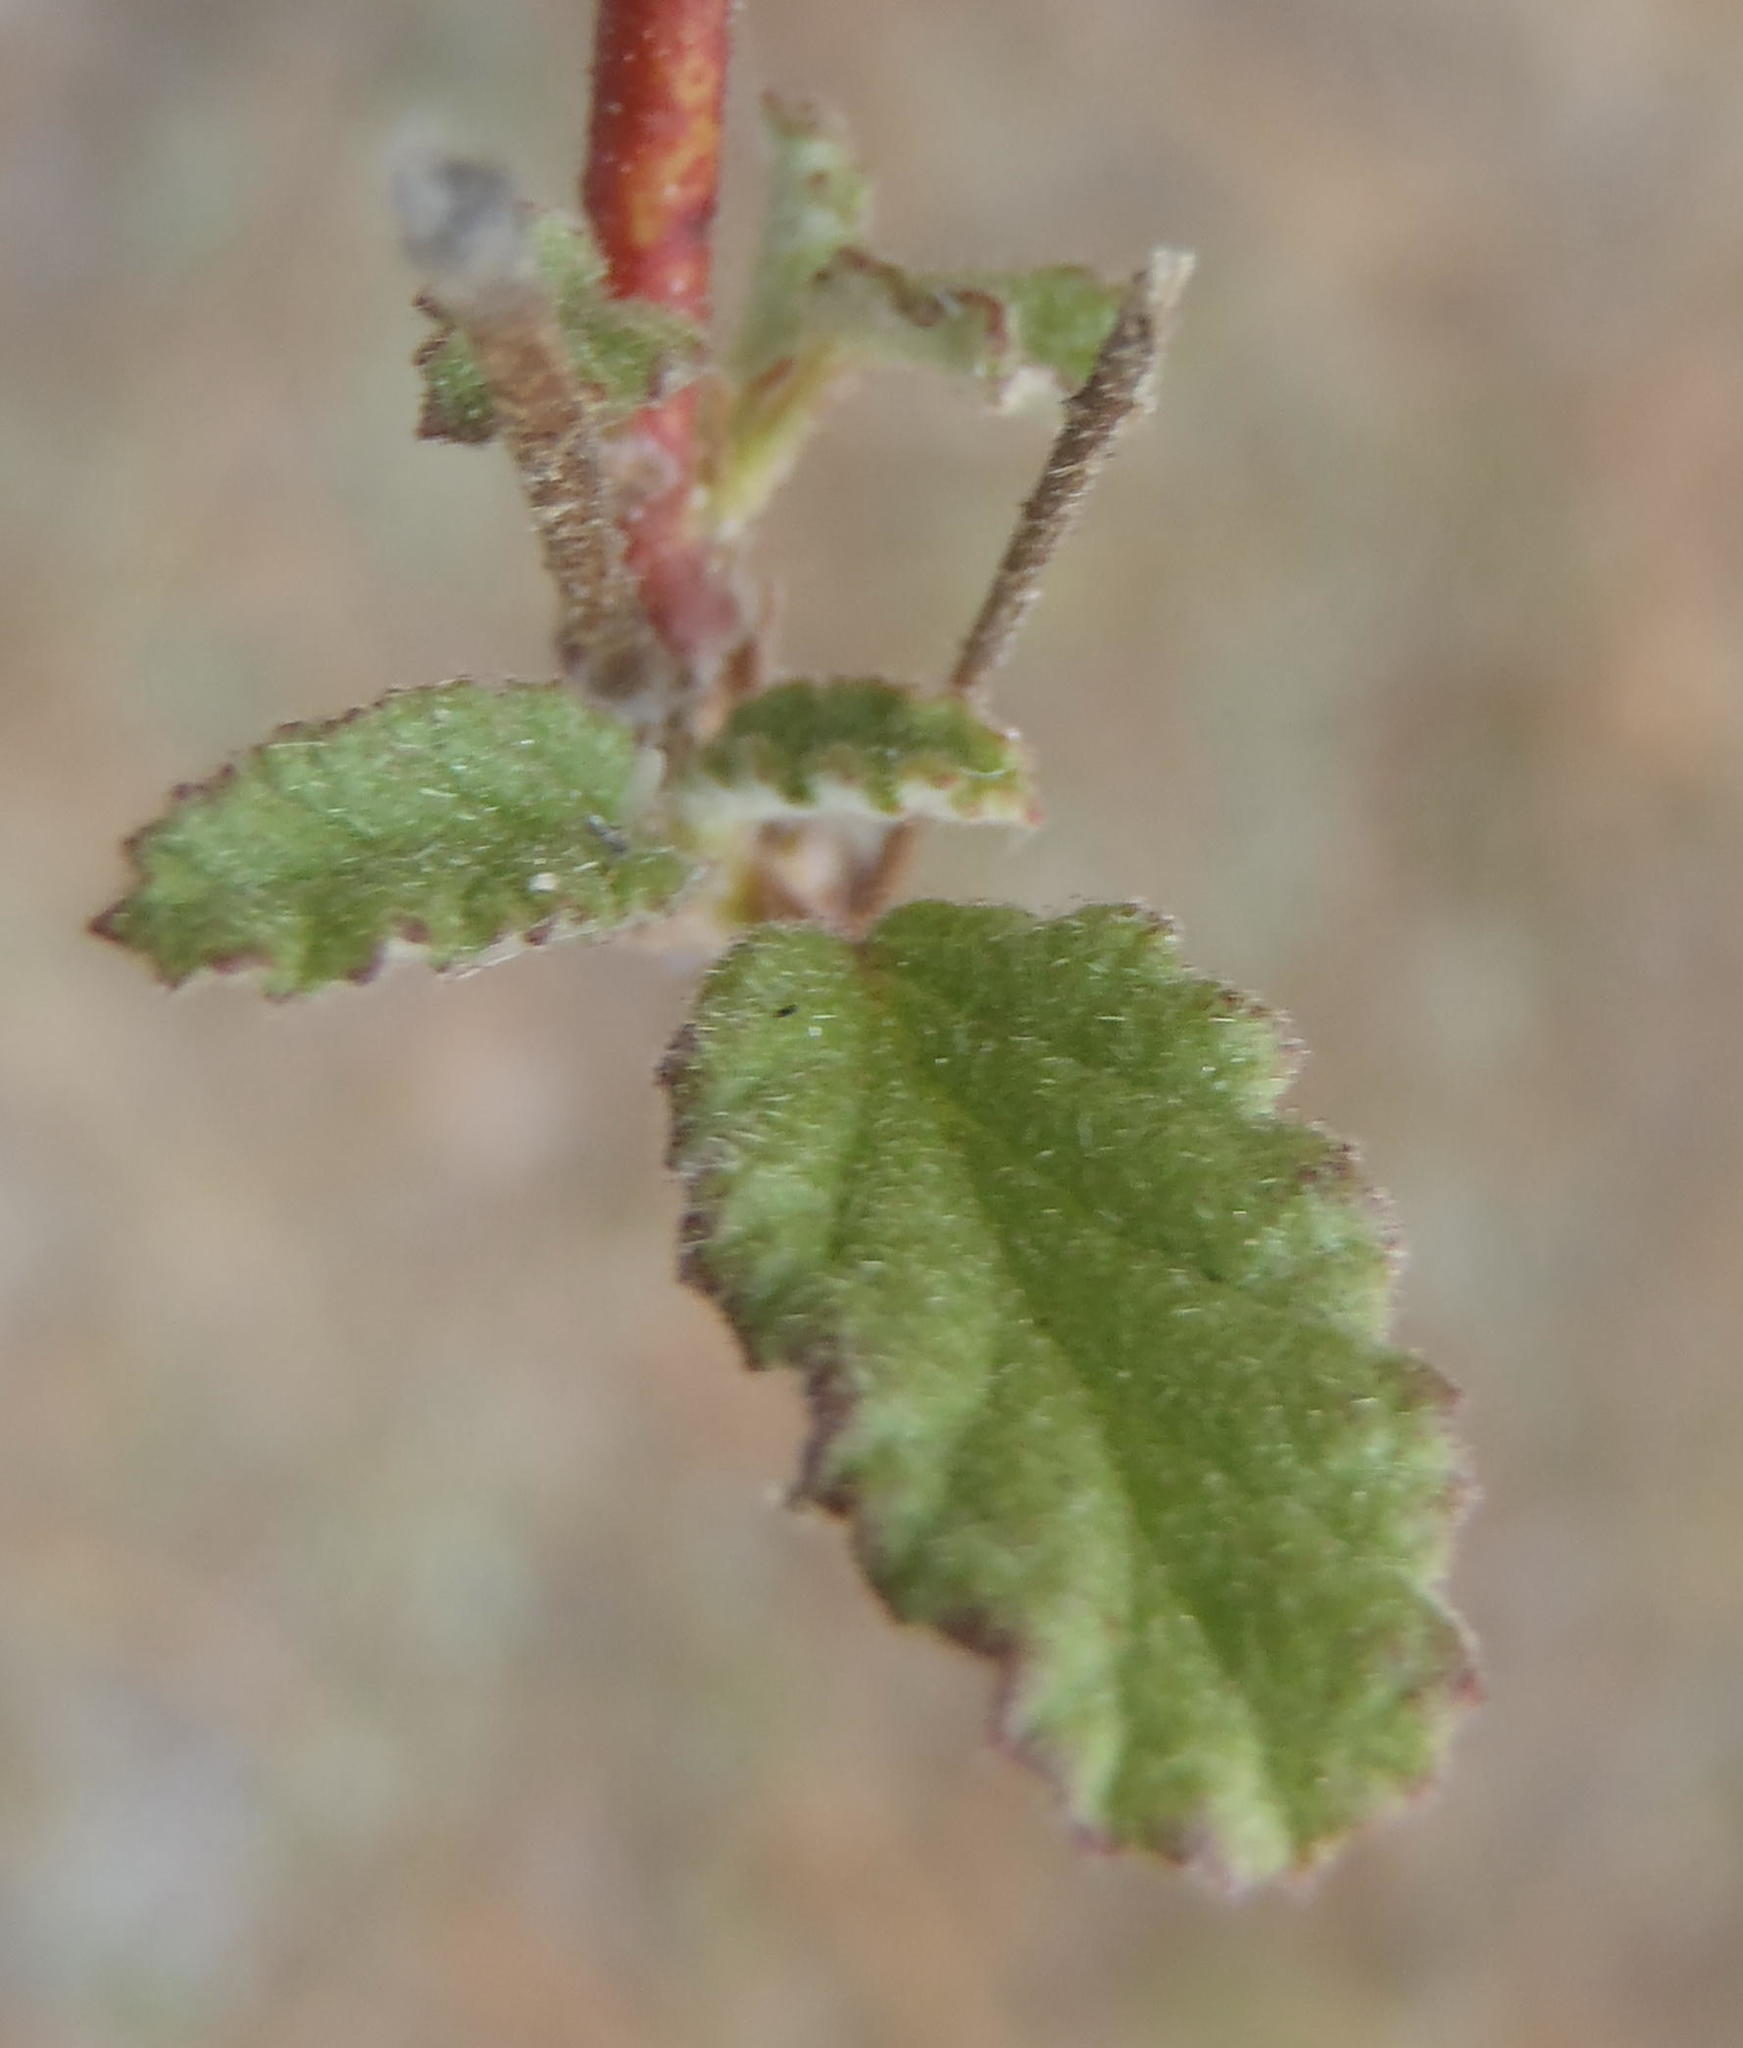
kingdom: Plantae
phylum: Tracheophyta
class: Magnoliopsida
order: Malvales
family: Malvaceae
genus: Hermannia
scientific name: Hermannia althaeoides
